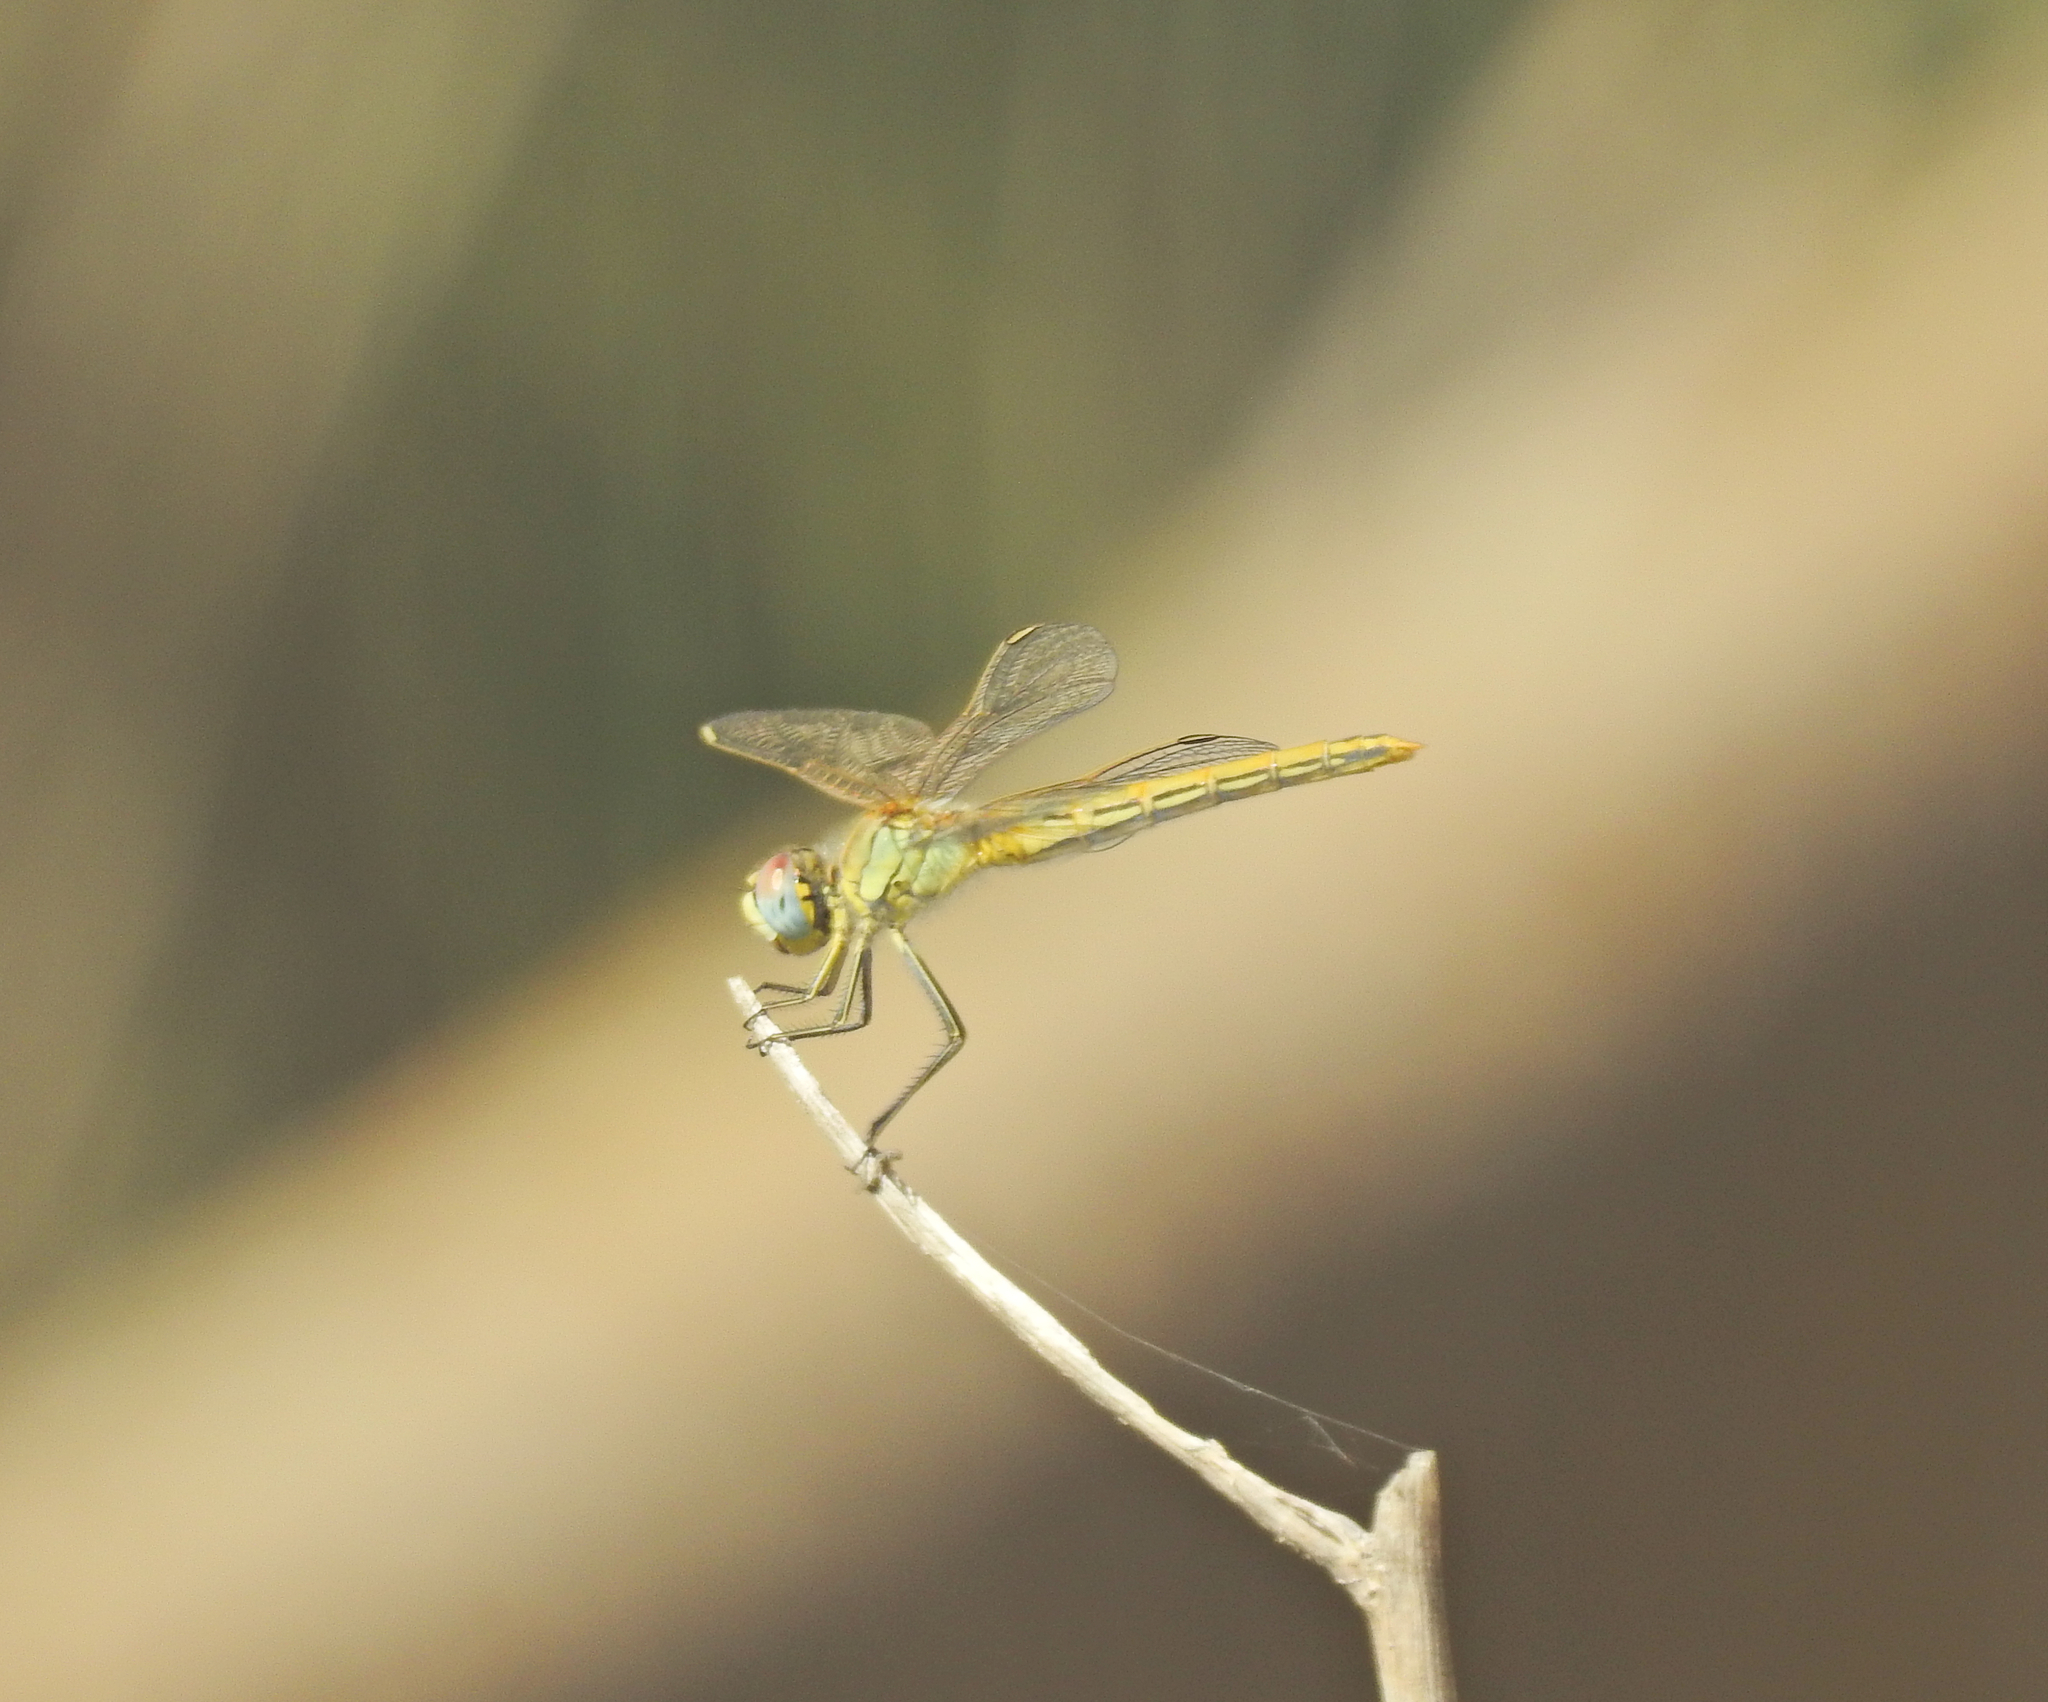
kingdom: Animalia
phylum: Arthropoda
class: Insecta
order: Odonata
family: Libellulidae
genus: Sympetrum
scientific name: Sympetrum fonscolombii
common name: Red-veined darter
